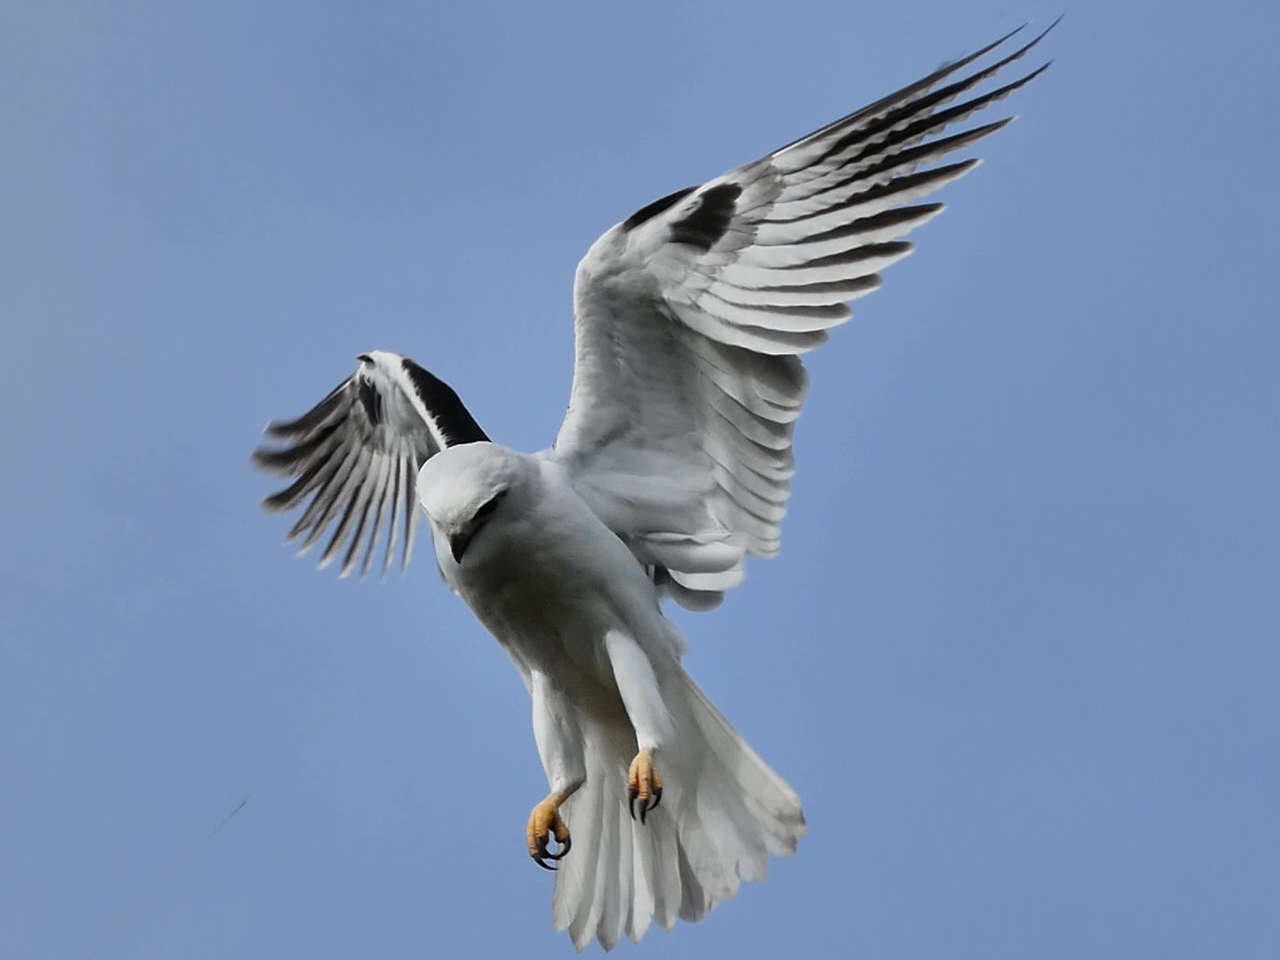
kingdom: Animalia
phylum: Chordata
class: Aves
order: Accipitriformes
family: Accipitridae
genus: Elanus
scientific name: Elanus axillaris
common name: Black-shouldered kite
